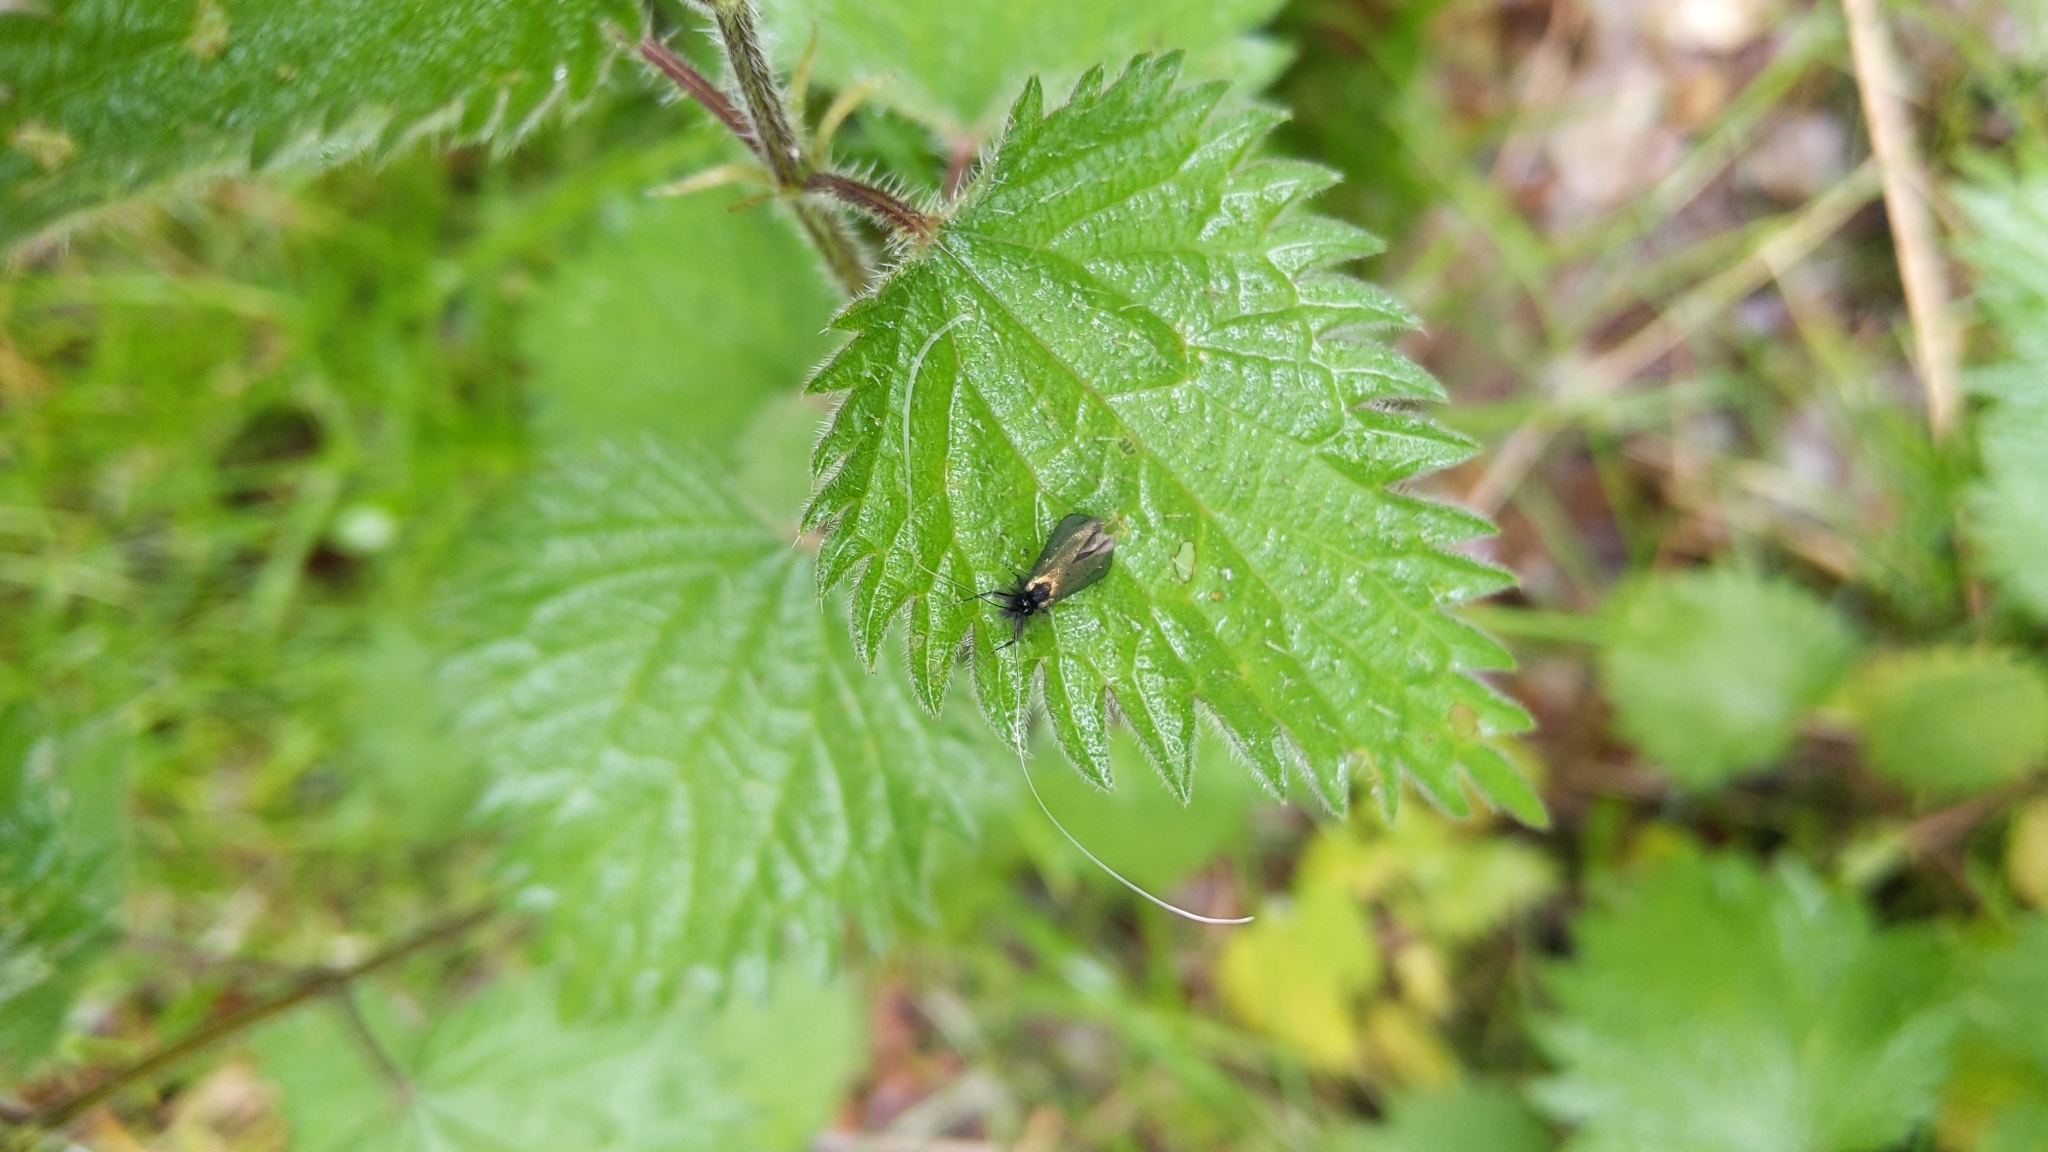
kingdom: Animalia
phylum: Arthropoda
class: Insecta
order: Lepidoptera
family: Adelidae
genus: Adela
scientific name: Adela viridella
